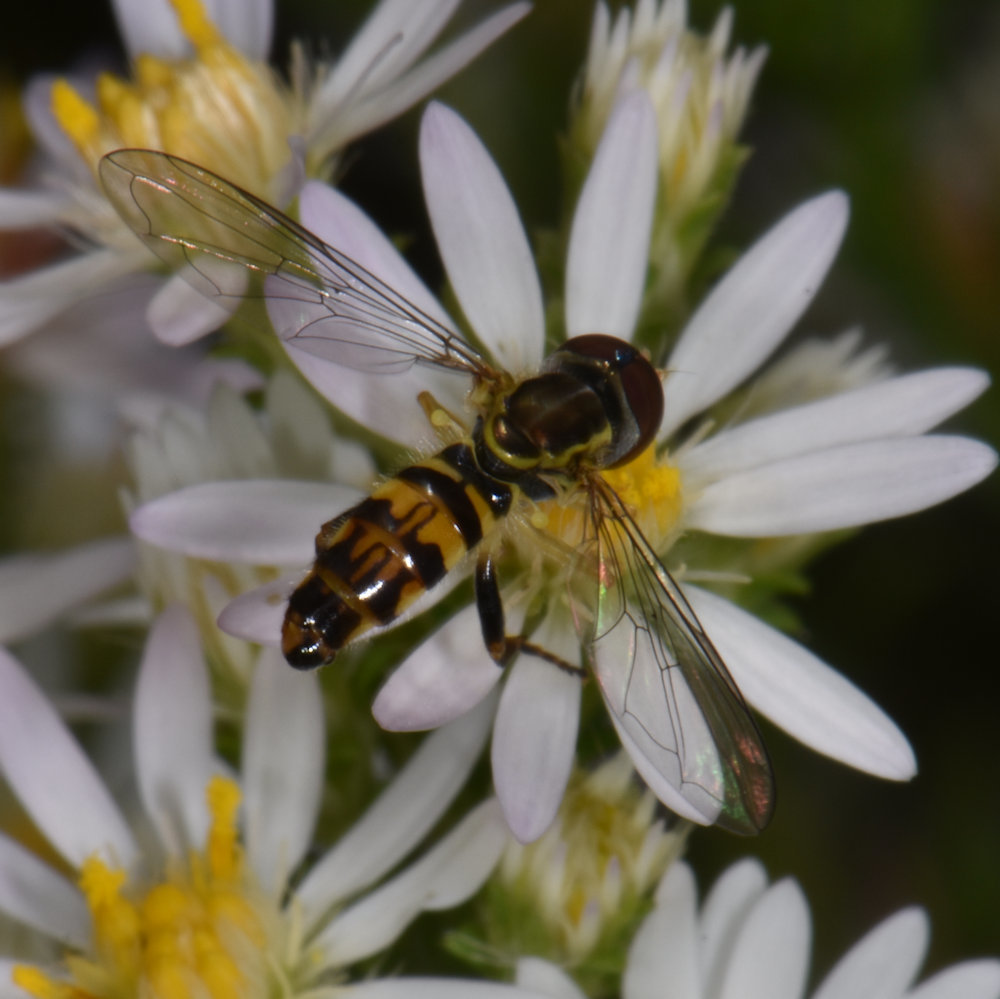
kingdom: Animalia
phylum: Arthropoda
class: Insecta
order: Diptera
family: Syrphidae
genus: Toxomerus
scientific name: Toxomerus geminatus
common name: Eastern calligrapher
